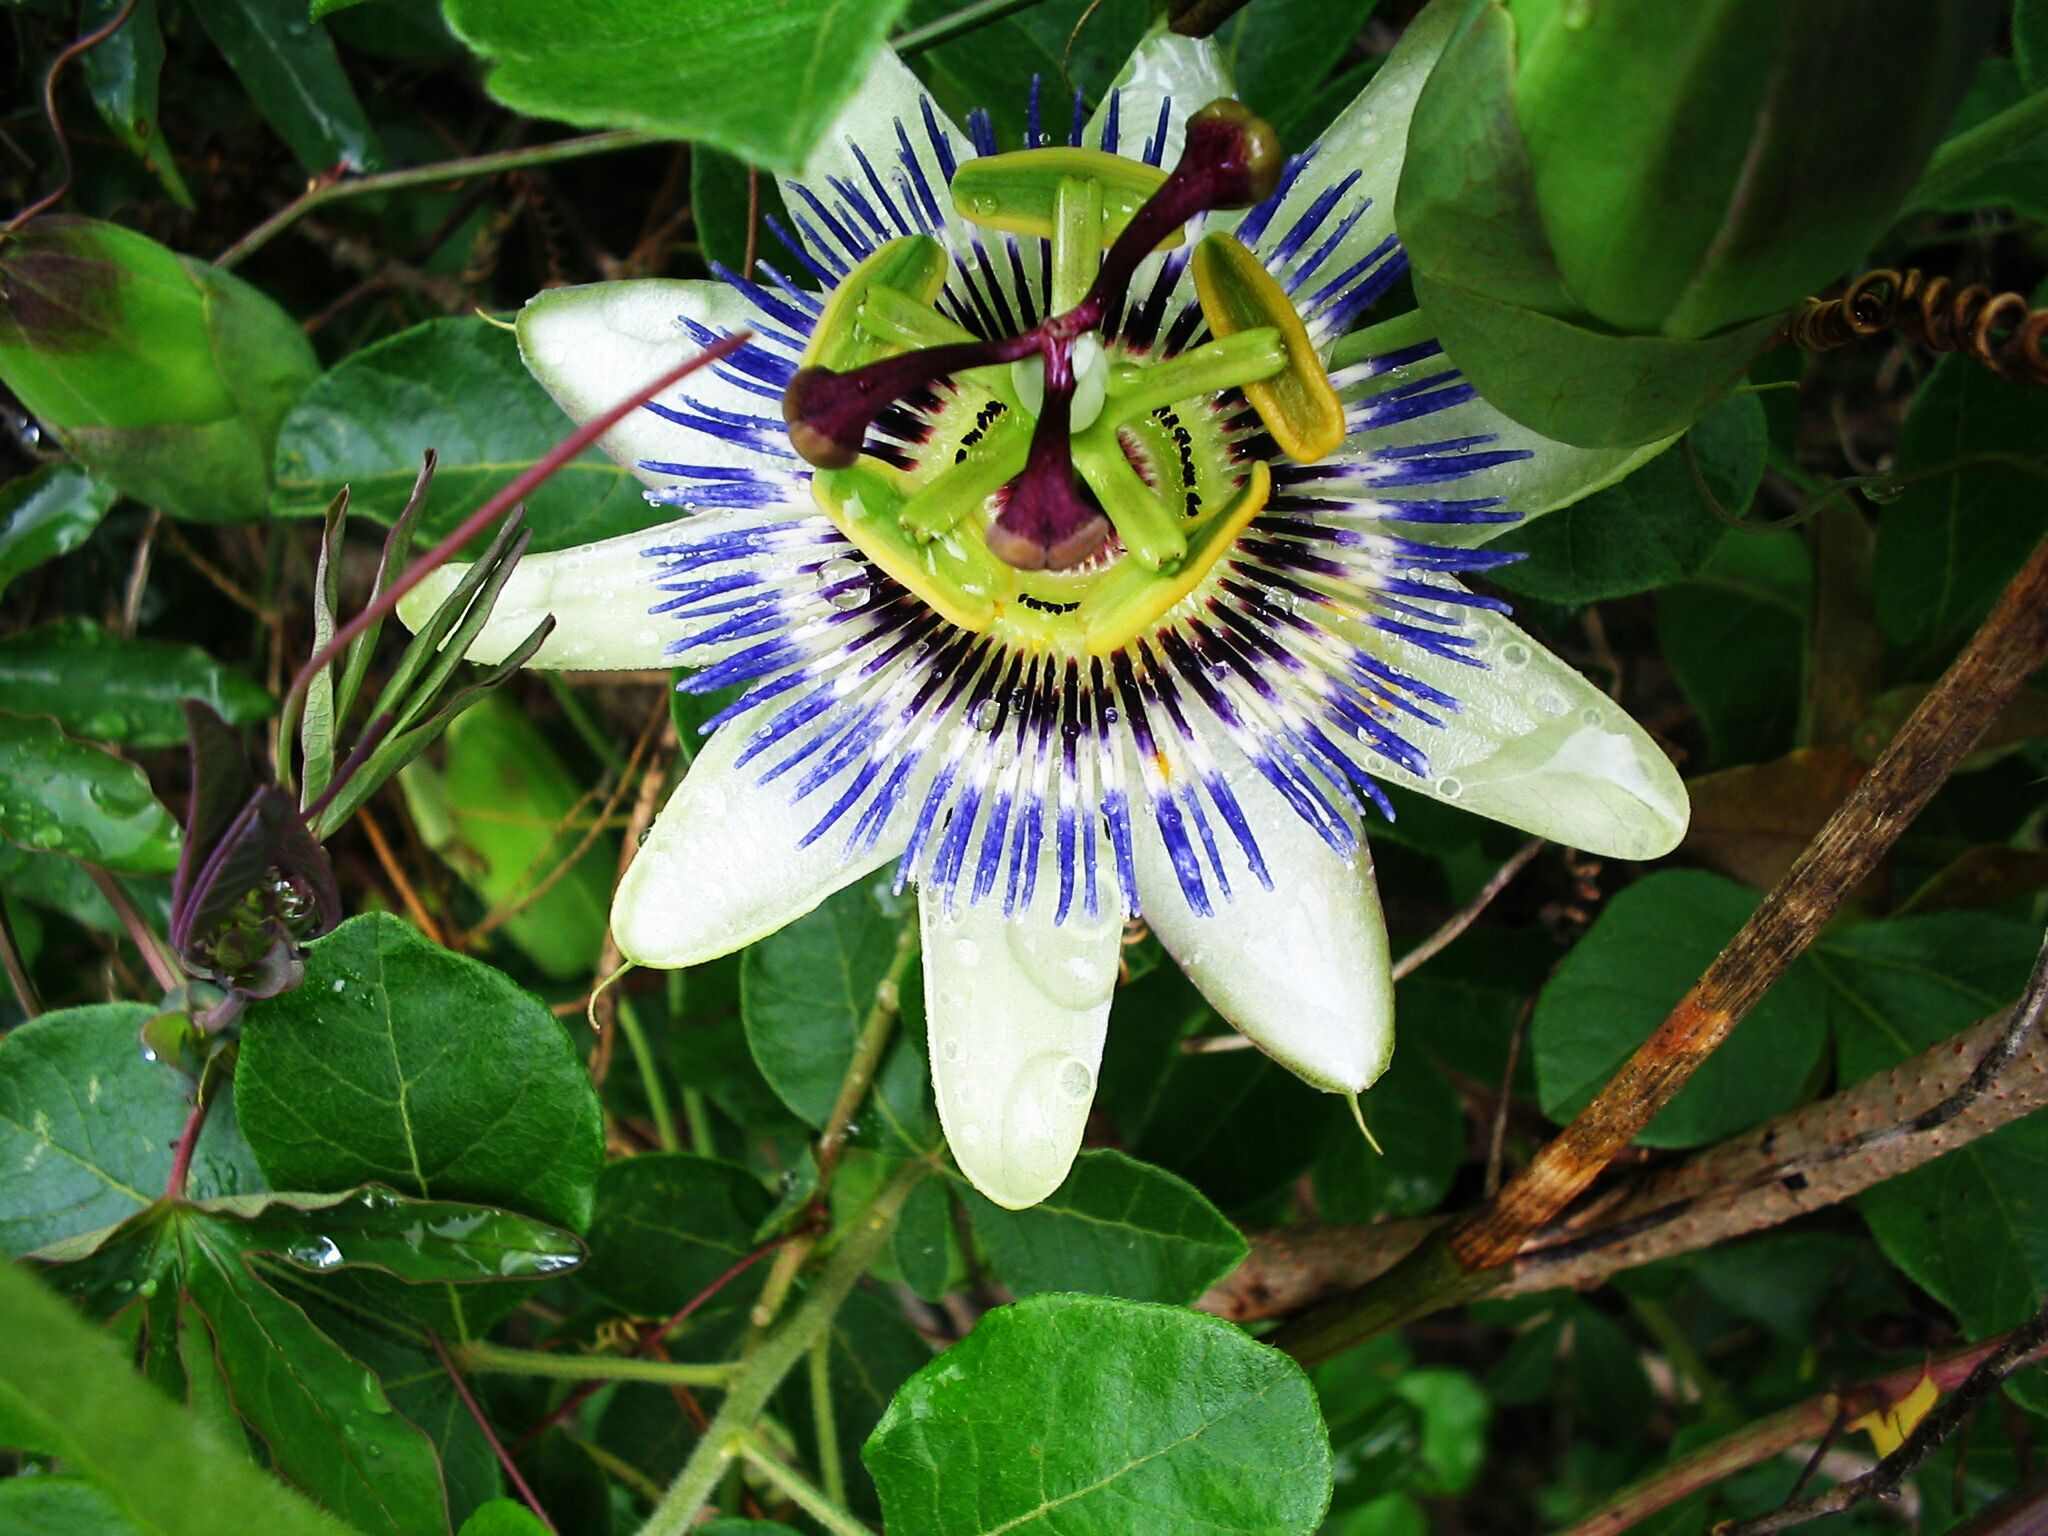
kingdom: Plantae
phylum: Tracheophyta
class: Magnoliopsida
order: Malpighiales
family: Passifloraceae
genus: Passiflora
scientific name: Passiflora caerulea
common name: Blue passionflower
